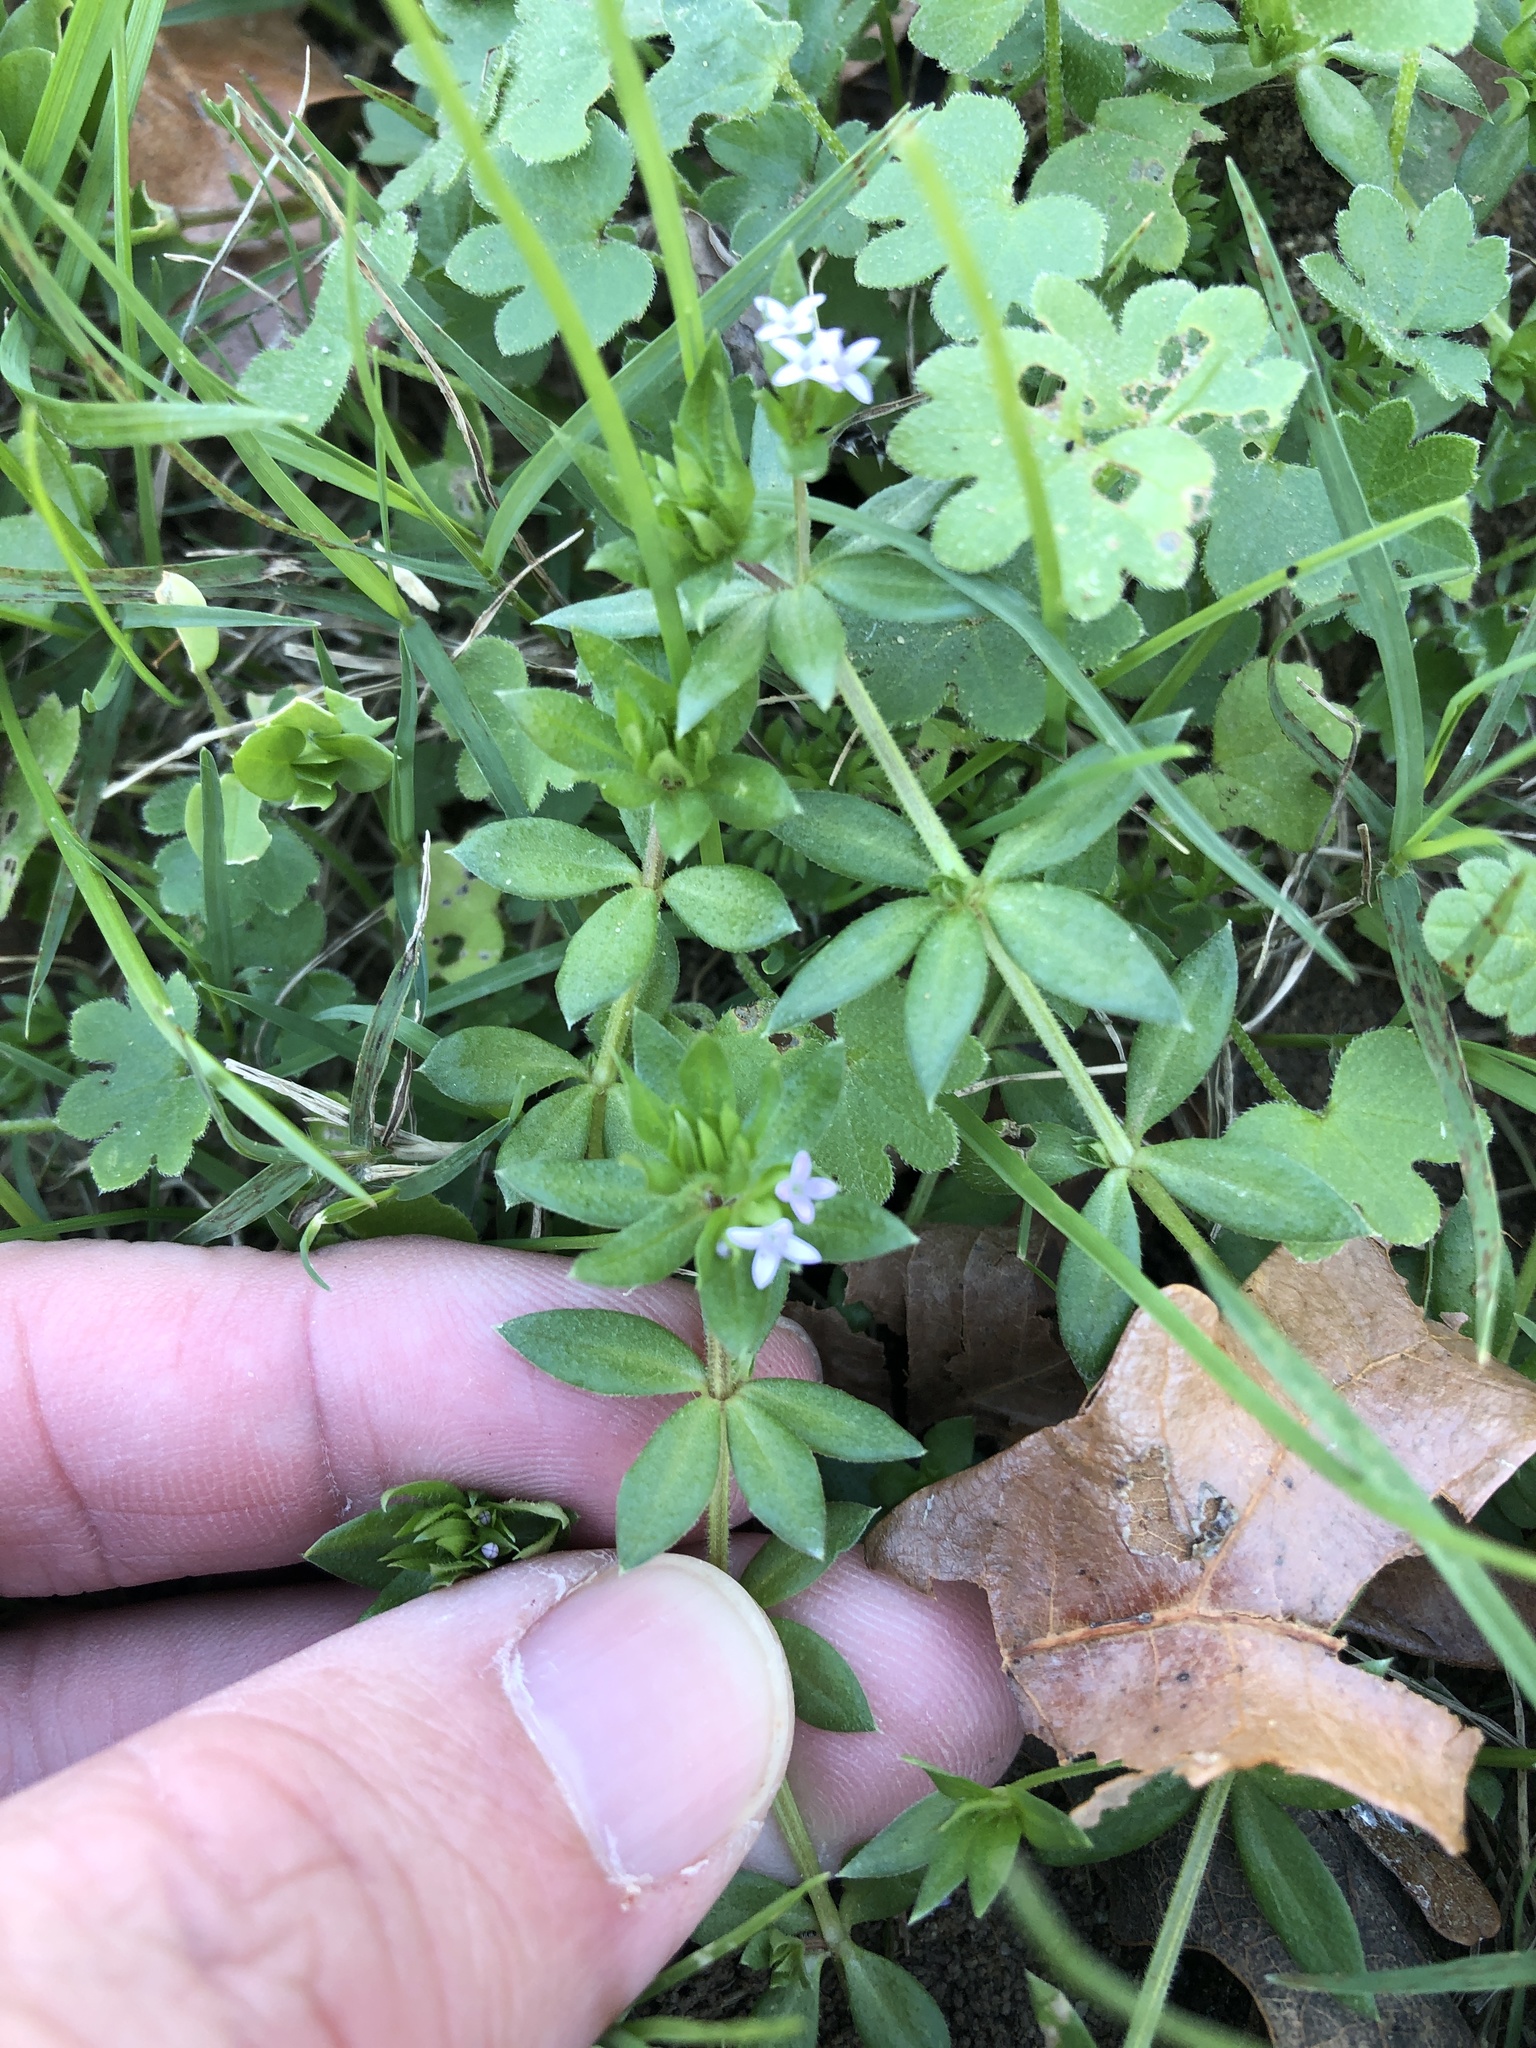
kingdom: Plantae
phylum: Tracheophyta
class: Magnoliopsida
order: Gentianales
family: Rubiaceae
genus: Sherardia
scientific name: Sherardia arvensis
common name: Field madder
